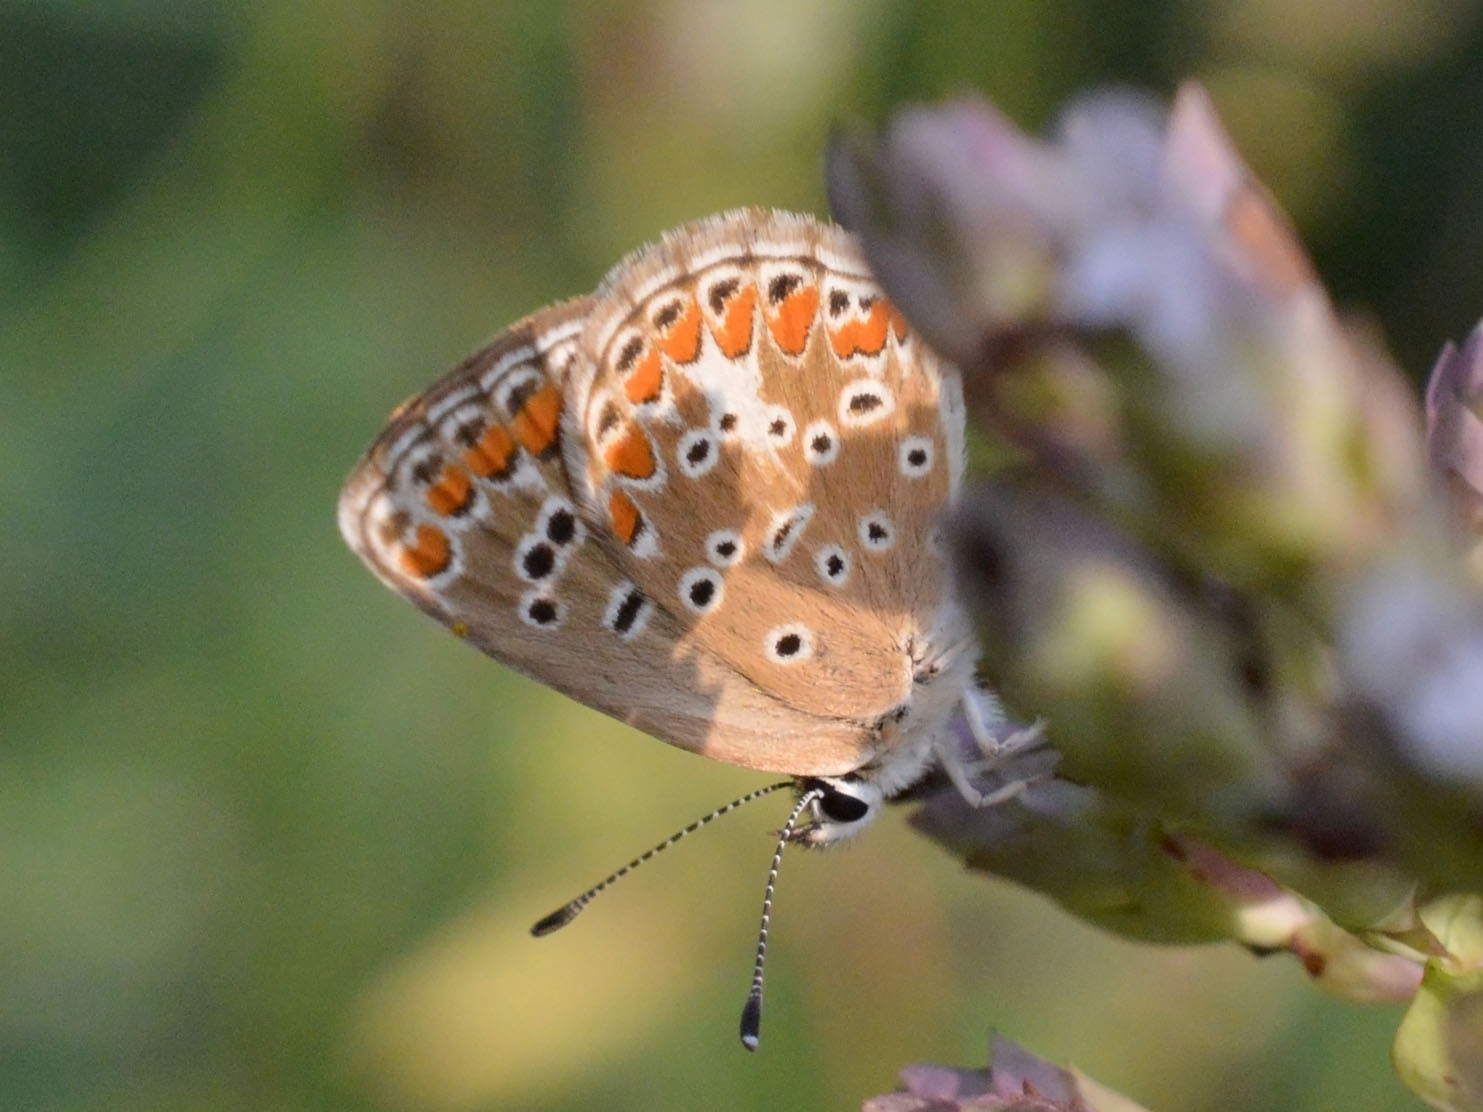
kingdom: Animalia
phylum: Arthropoda
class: Insecta
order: Lepidoptera
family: Lycaenidae
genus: Aricia
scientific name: Aricia agestis
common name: Brown argus
